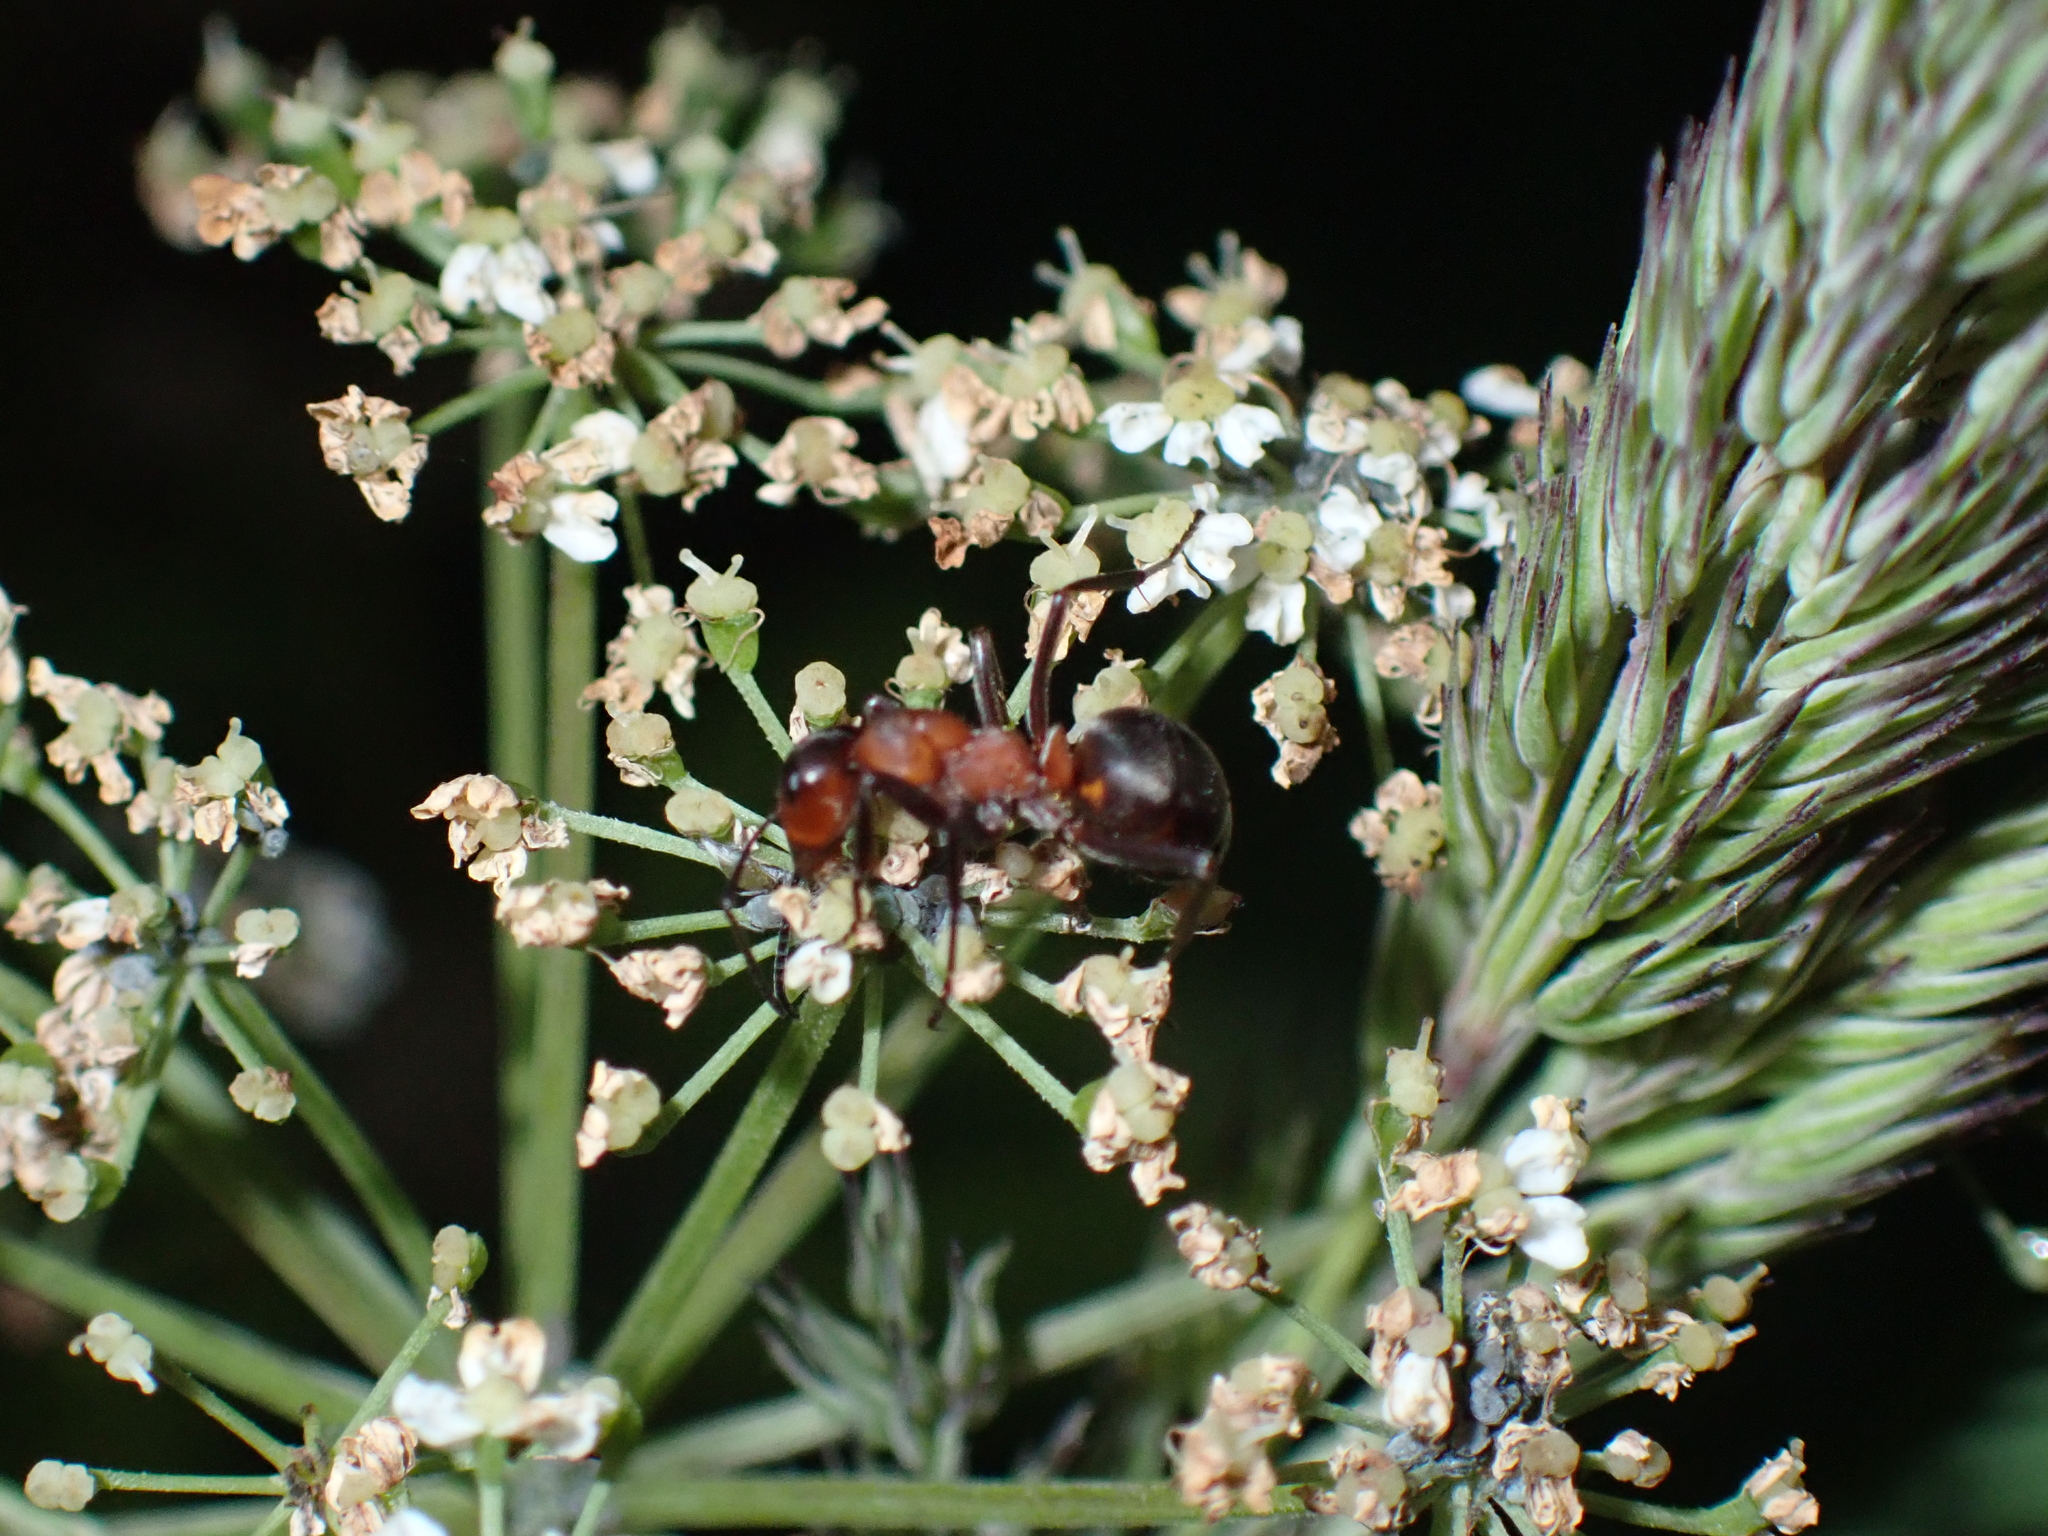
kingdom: Animalia
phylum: Arthropoda
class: Insecta
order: Hymenoptera
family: Formicidae
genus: Formica
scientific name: Formica
